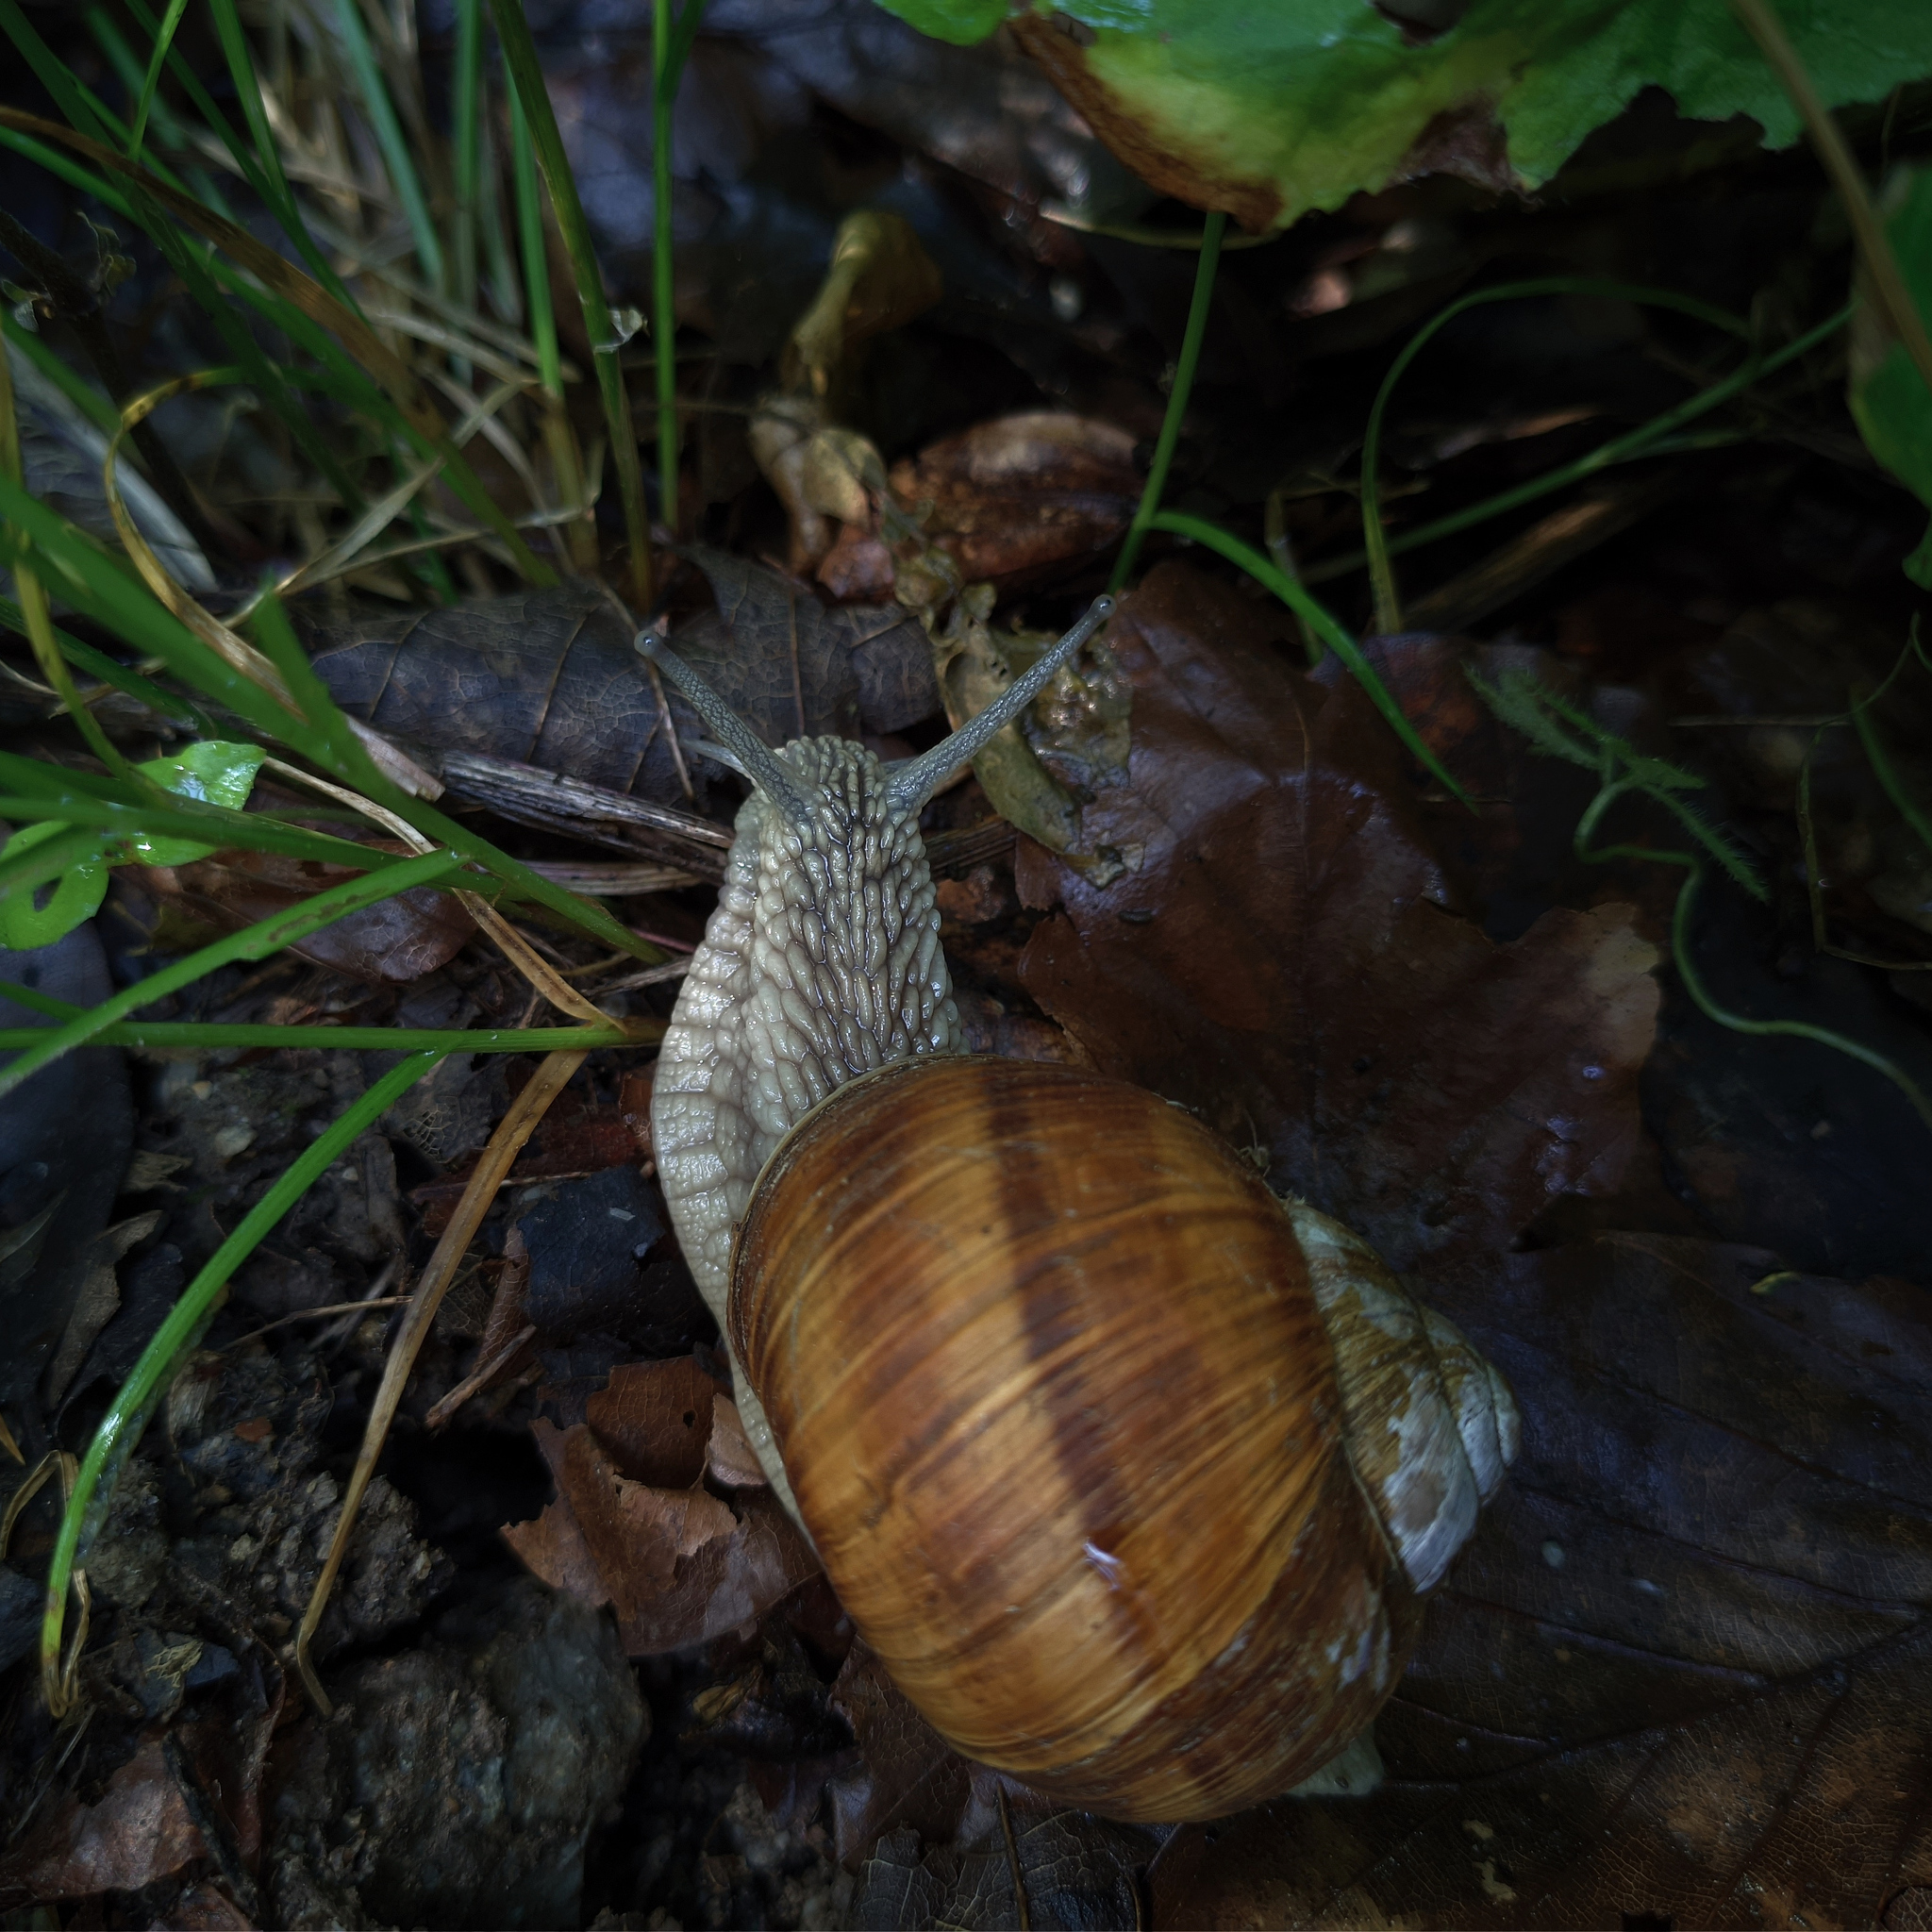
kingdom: Animalia
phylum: Mollusca
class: Gastropoda
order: Stylommatophora
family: Helicidae
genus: Helix
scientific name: Helix pomatia
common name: Roman snail
